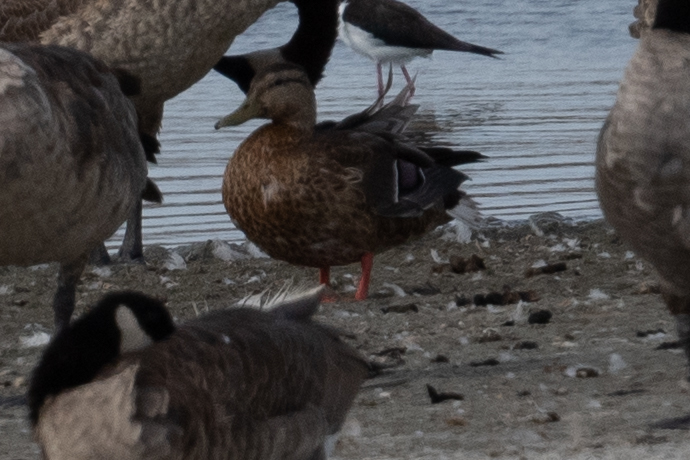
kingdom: Animalia
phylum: Chordata
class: Aves
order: Anseriformes
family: Anatidae
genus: Anas
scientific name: Anas platyrhynchos
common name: Mallard
